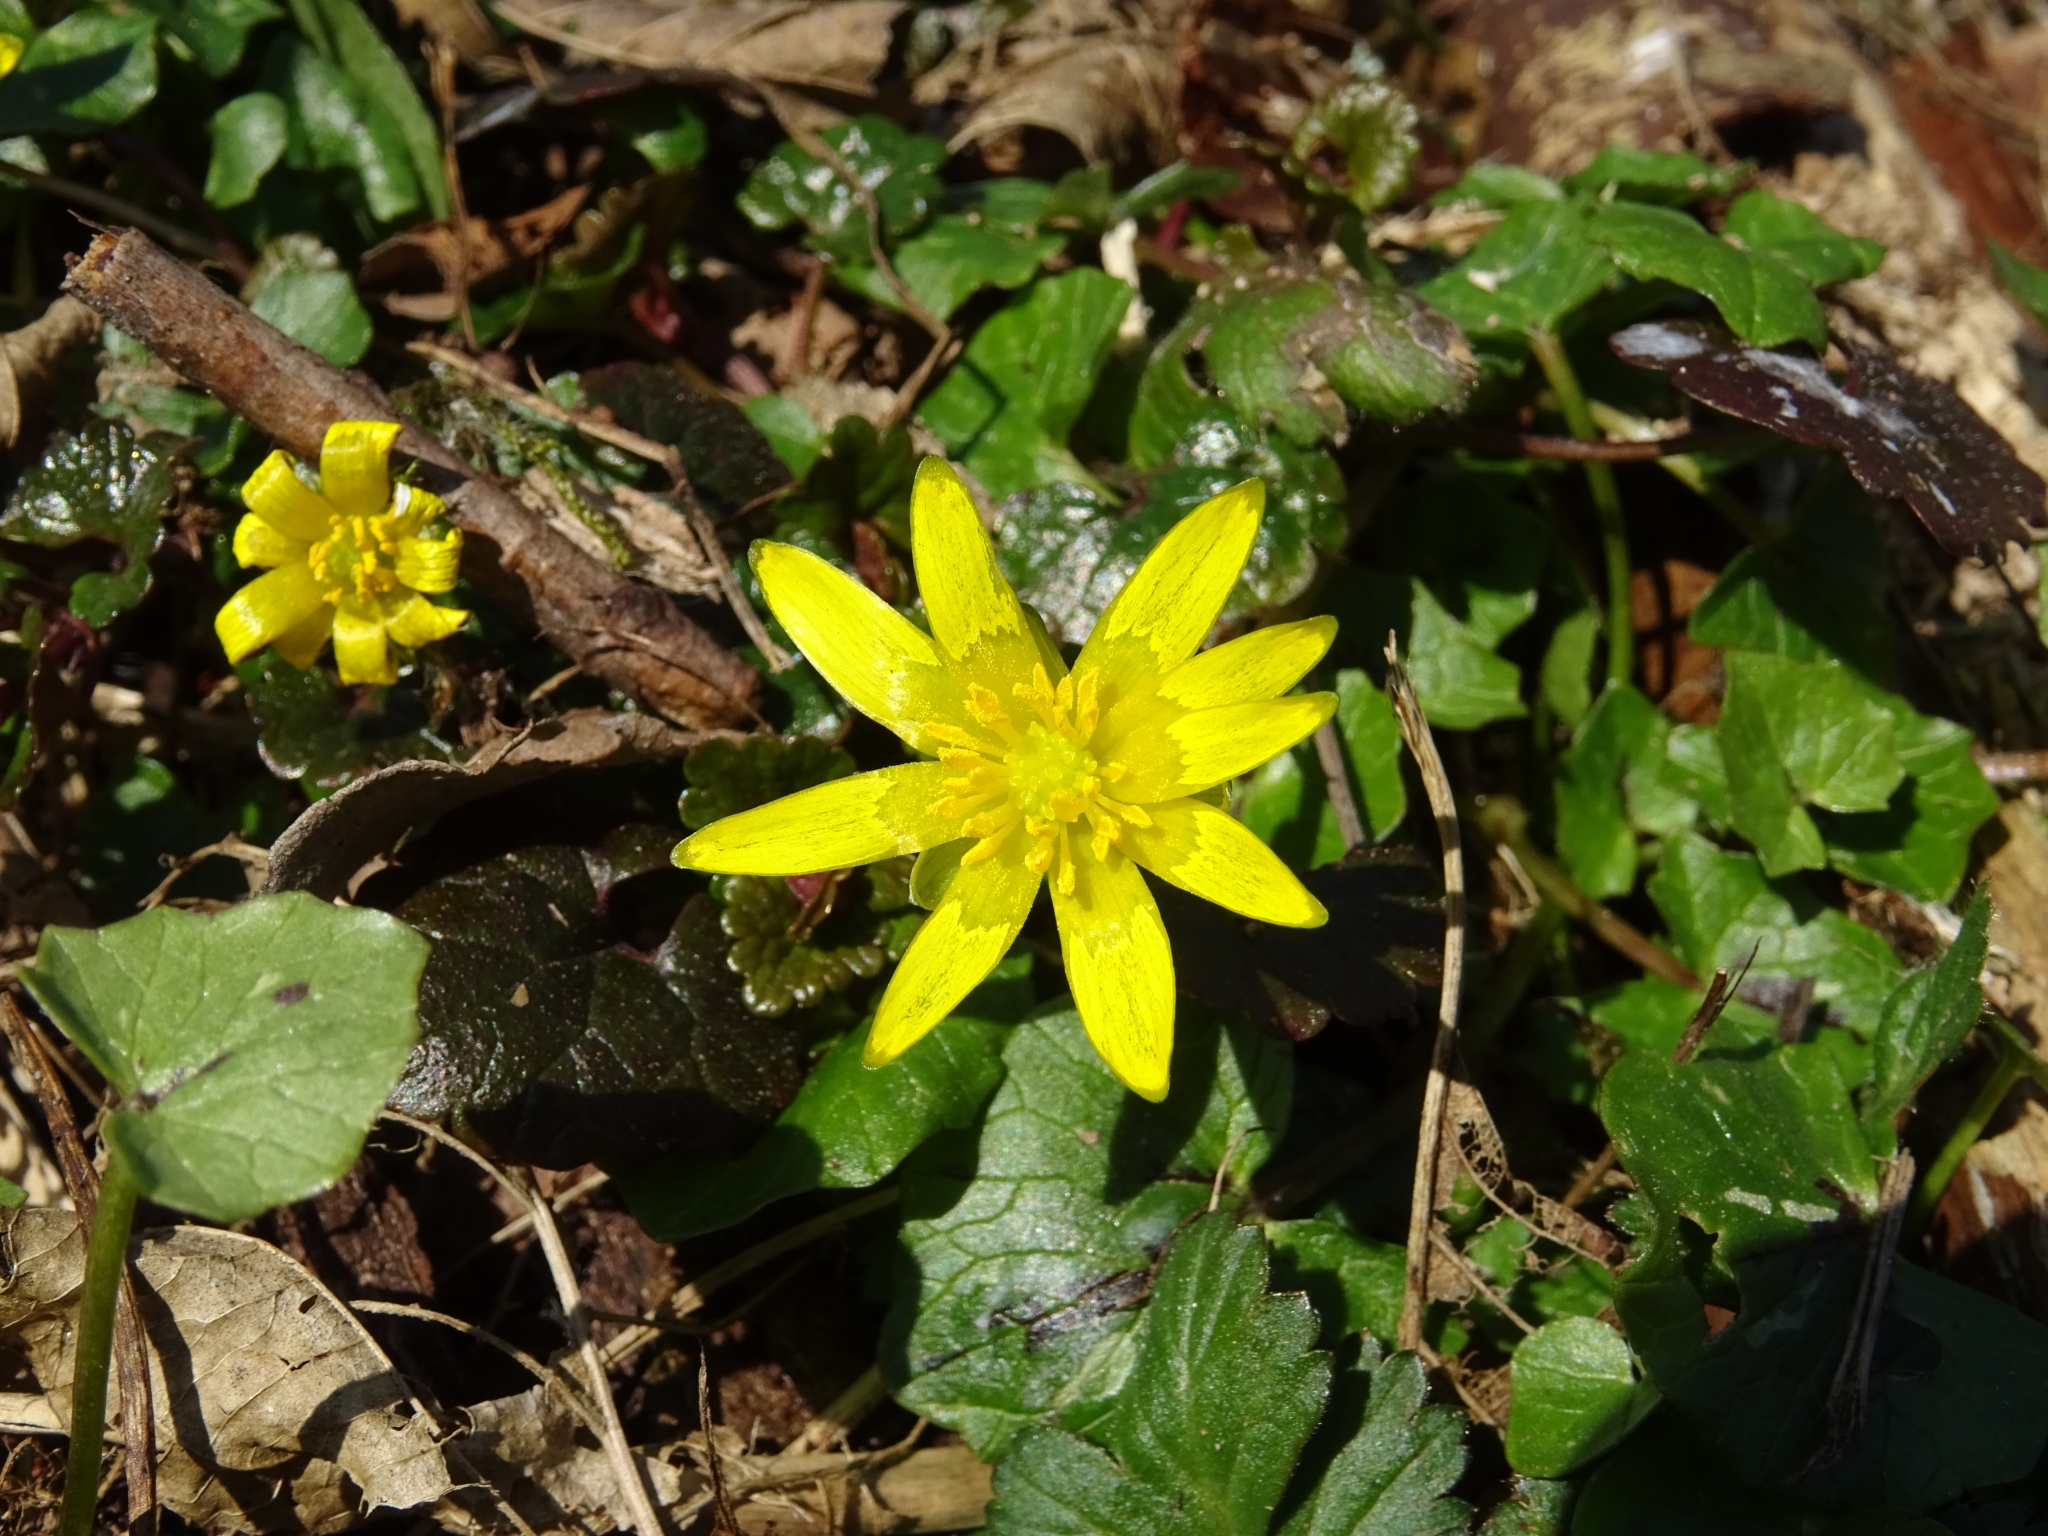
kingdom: Plantae
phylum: Tracheophyta
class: Magnoliopsida
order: Ranunculales
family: Ranunculaceae
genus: Ficaria
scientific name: Ficaria verna
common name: Lesser celandine
